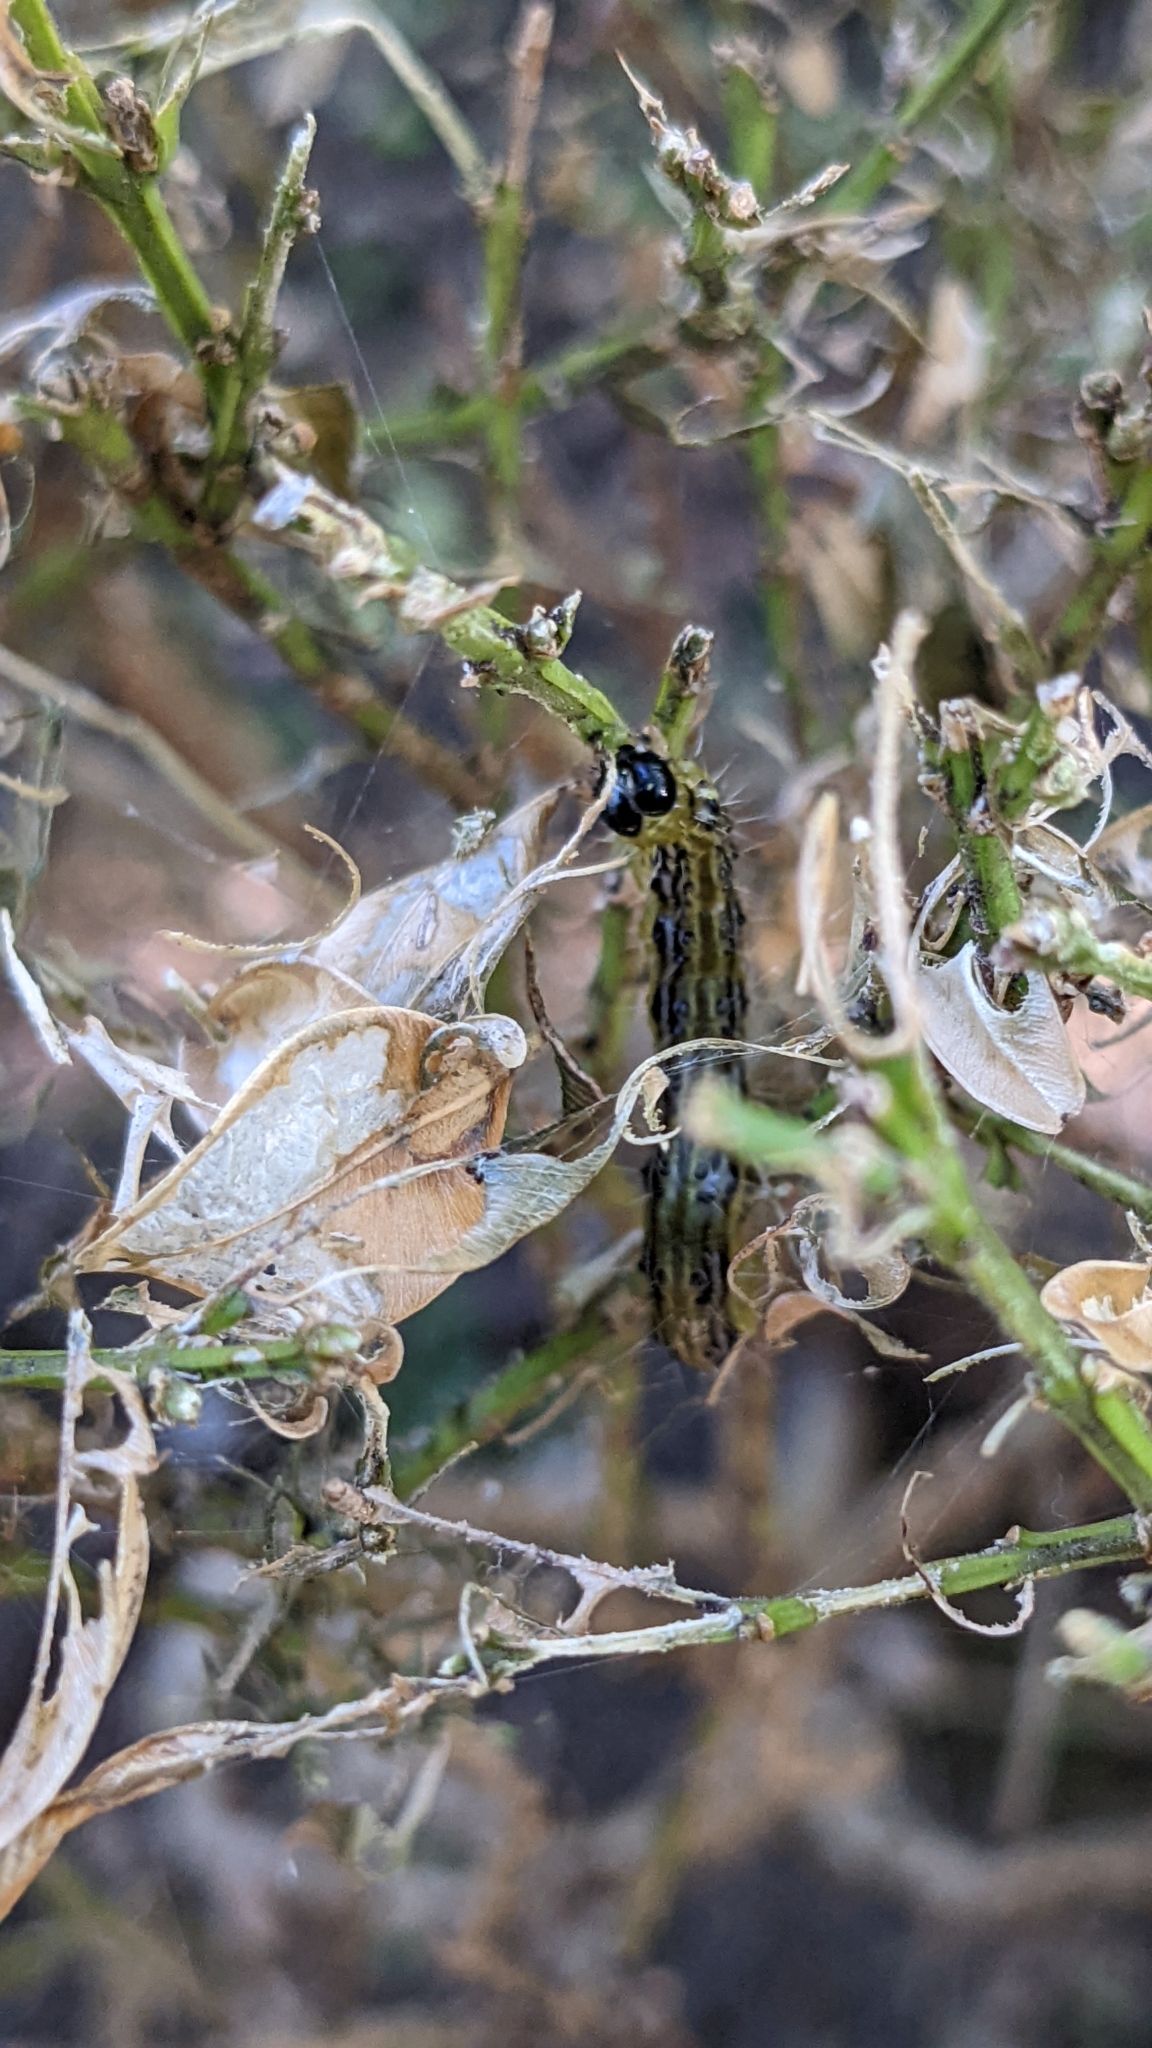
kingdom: Animalia
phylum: Arthropoda
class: Insecta
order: Lepidoptera
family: Crambidae
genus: Cydalima
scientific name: Cydalima perspectalis
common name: Box tree moth
